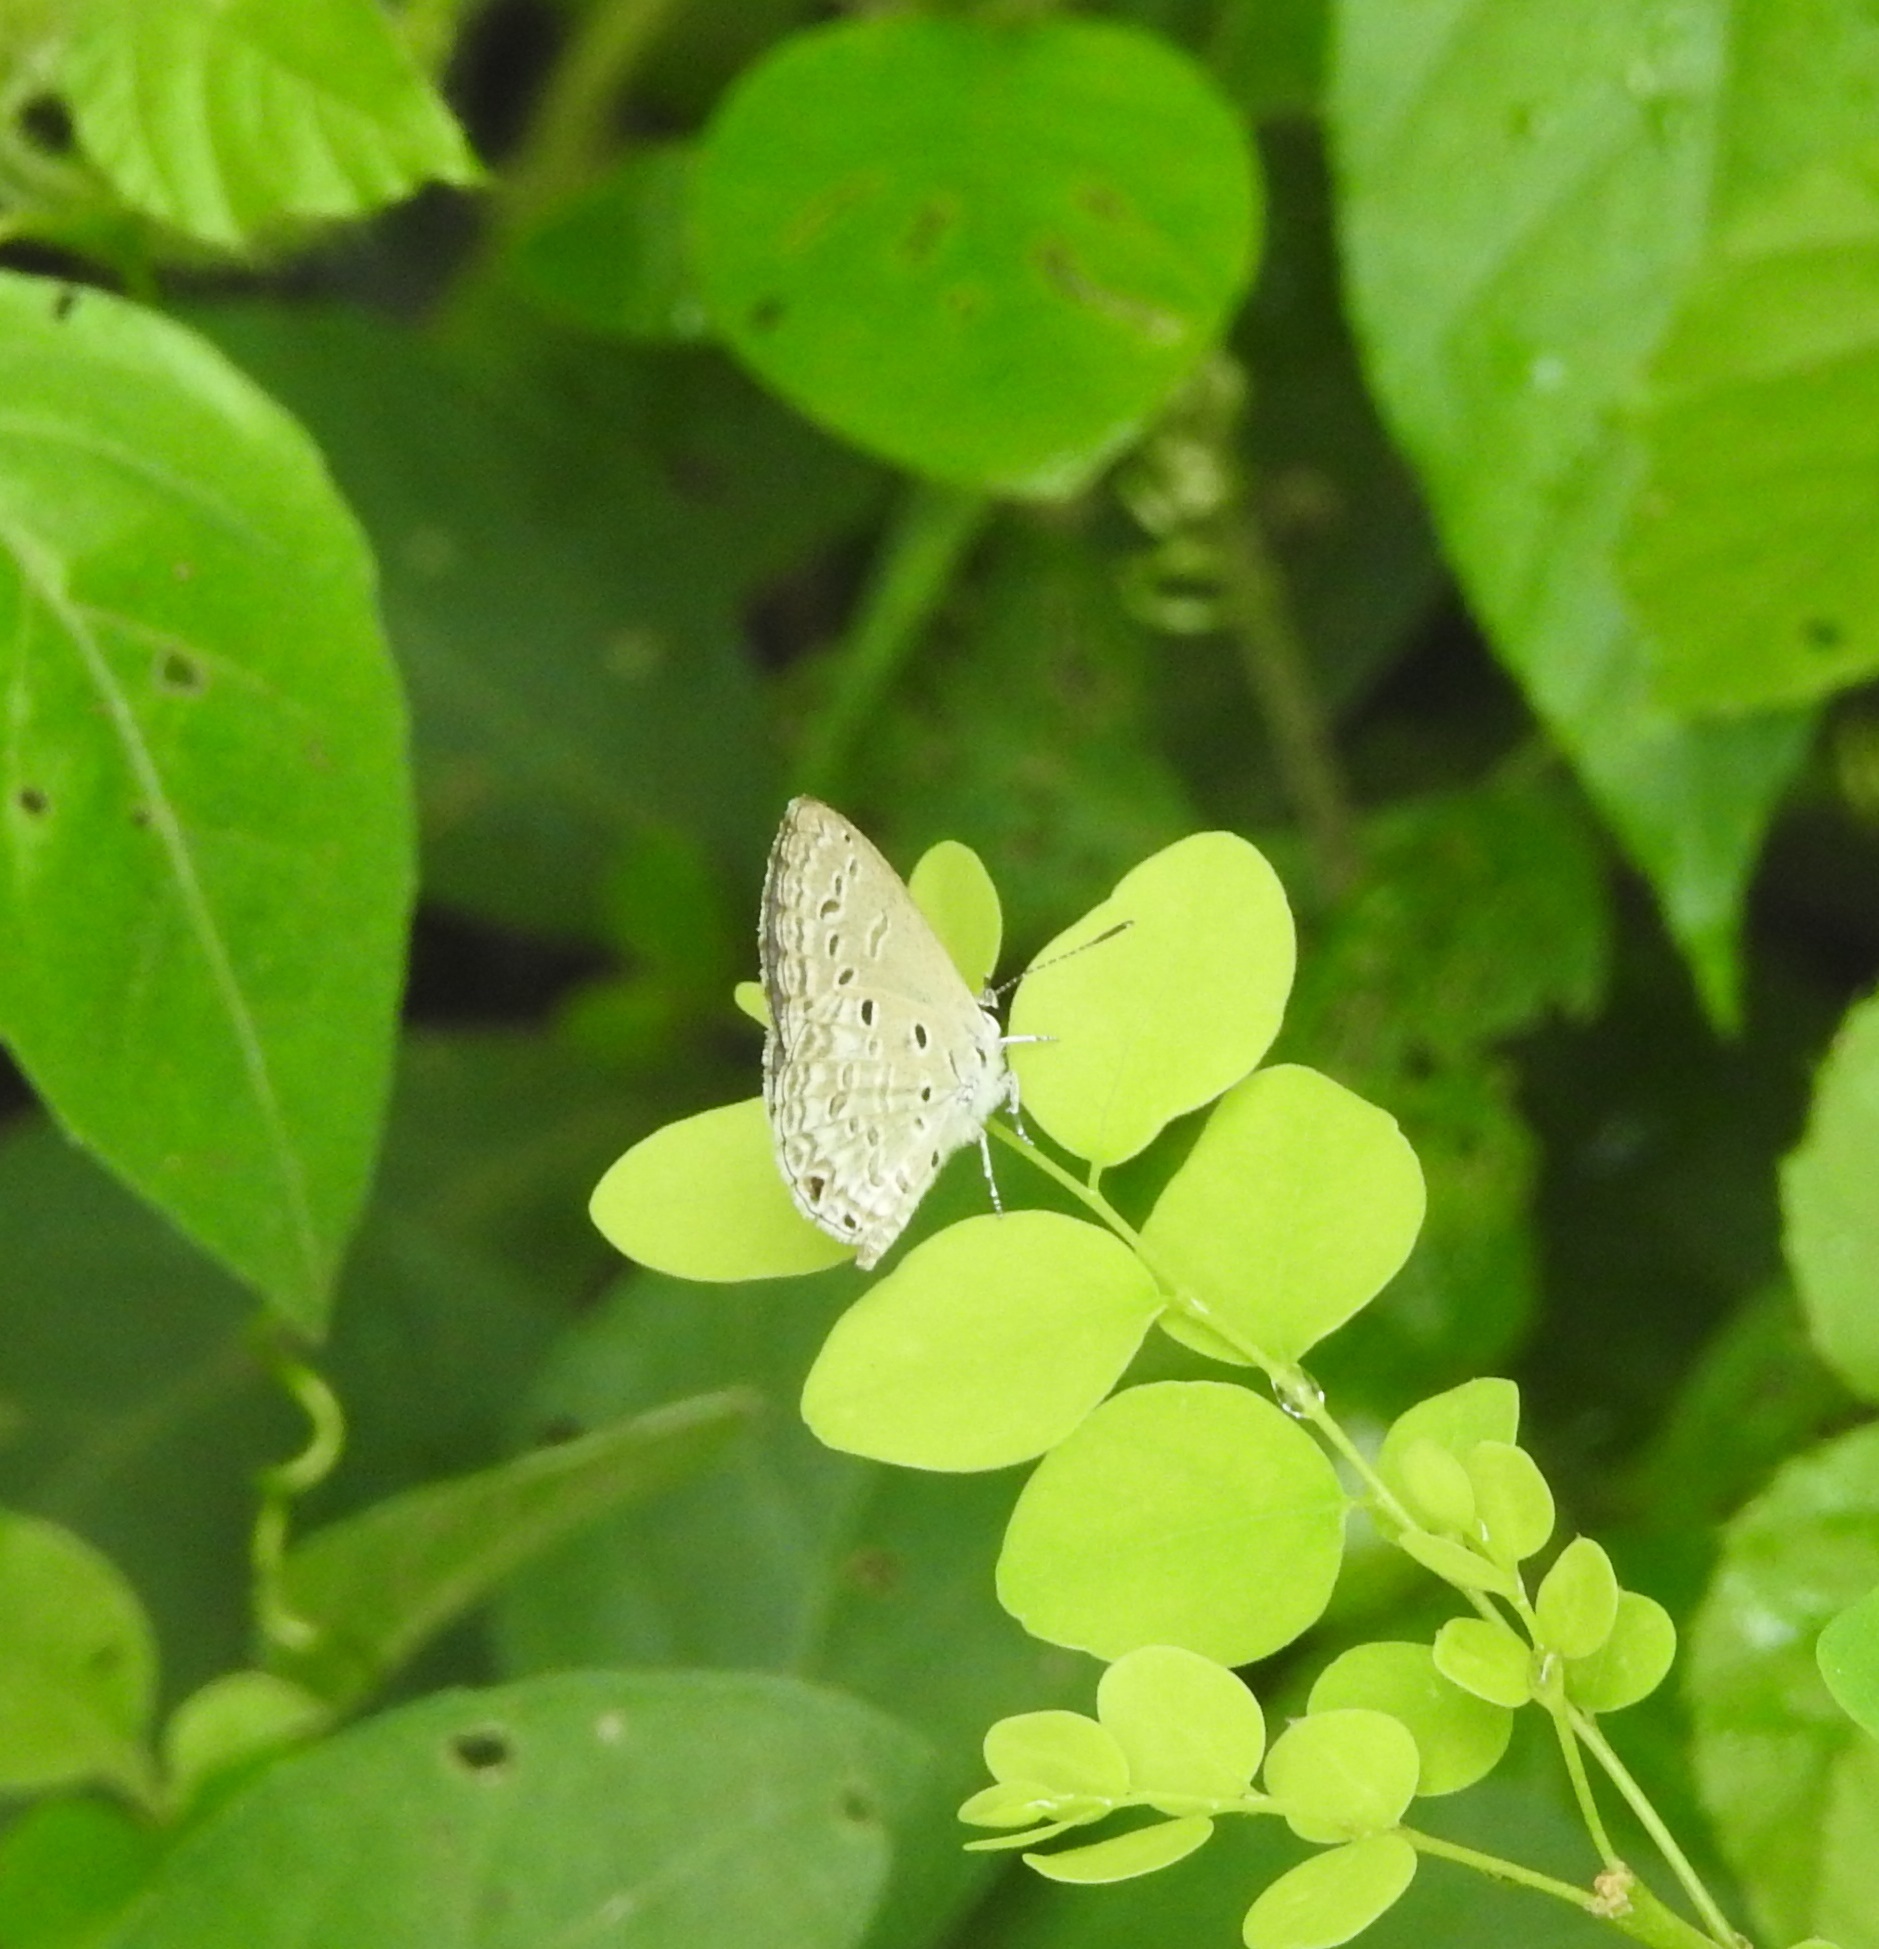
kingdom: Animalia
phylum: Arthropoda
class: Insecta
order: Lepidoptera
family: Lycaenidae
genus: Chilades
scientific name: Chilades laius
